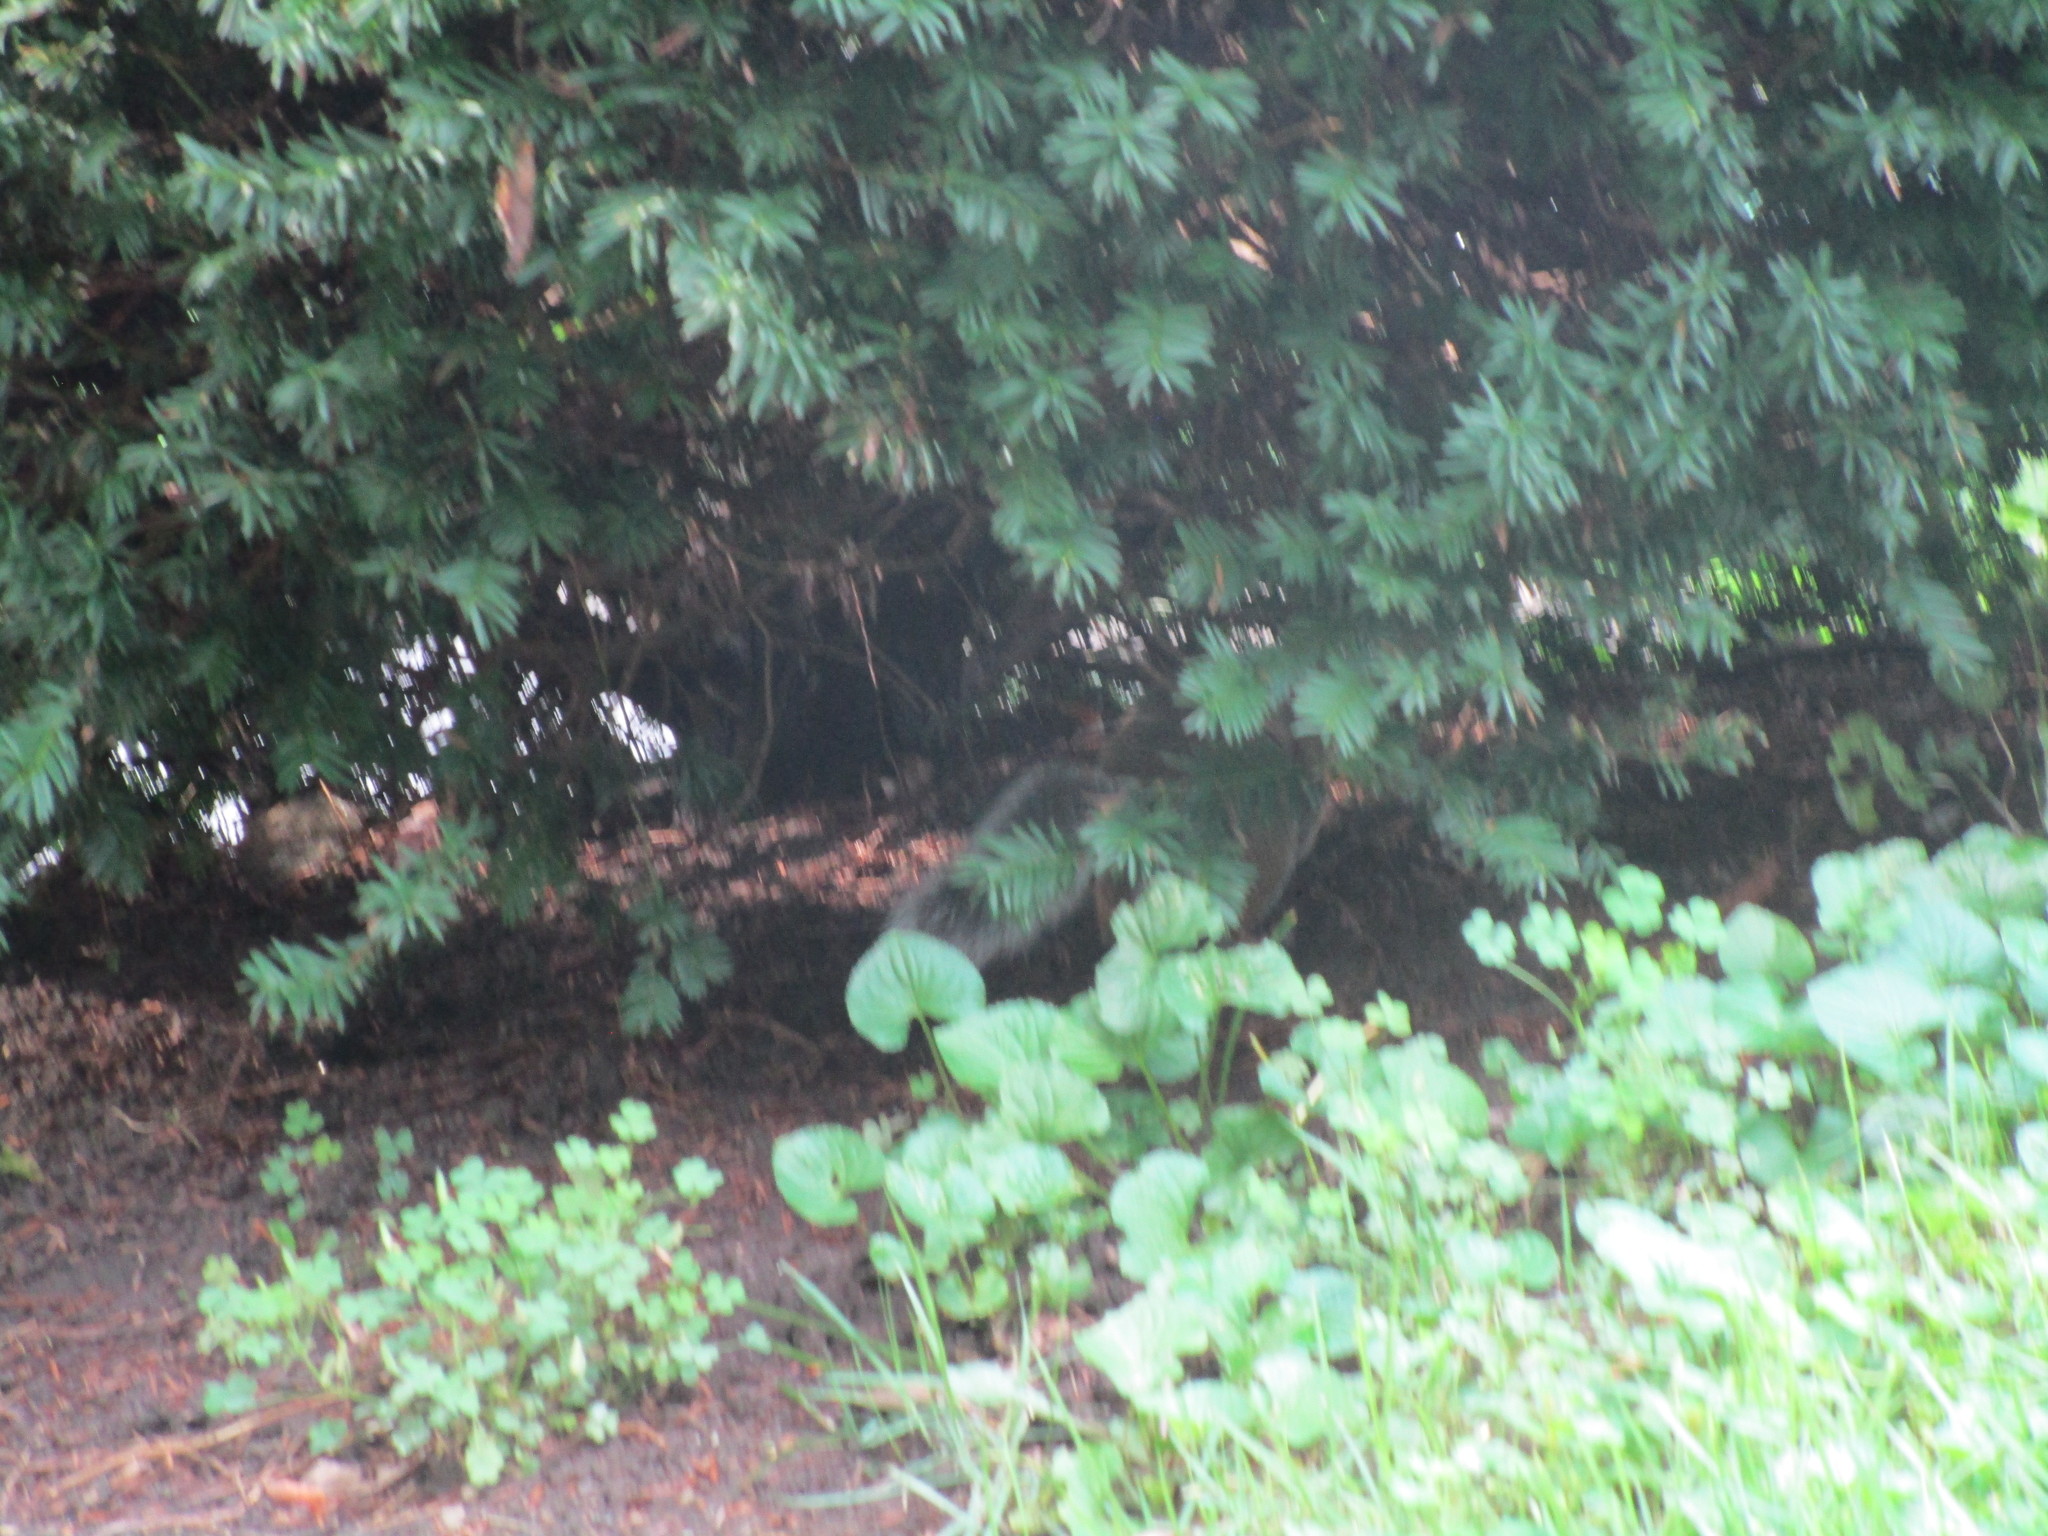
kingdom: Animalia
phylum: Chordata
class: Mammalia
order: Rodentia
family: Sciuridae
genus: Sciurus
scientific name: Sciurus carolinensis
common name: Eastern gray squirrel
